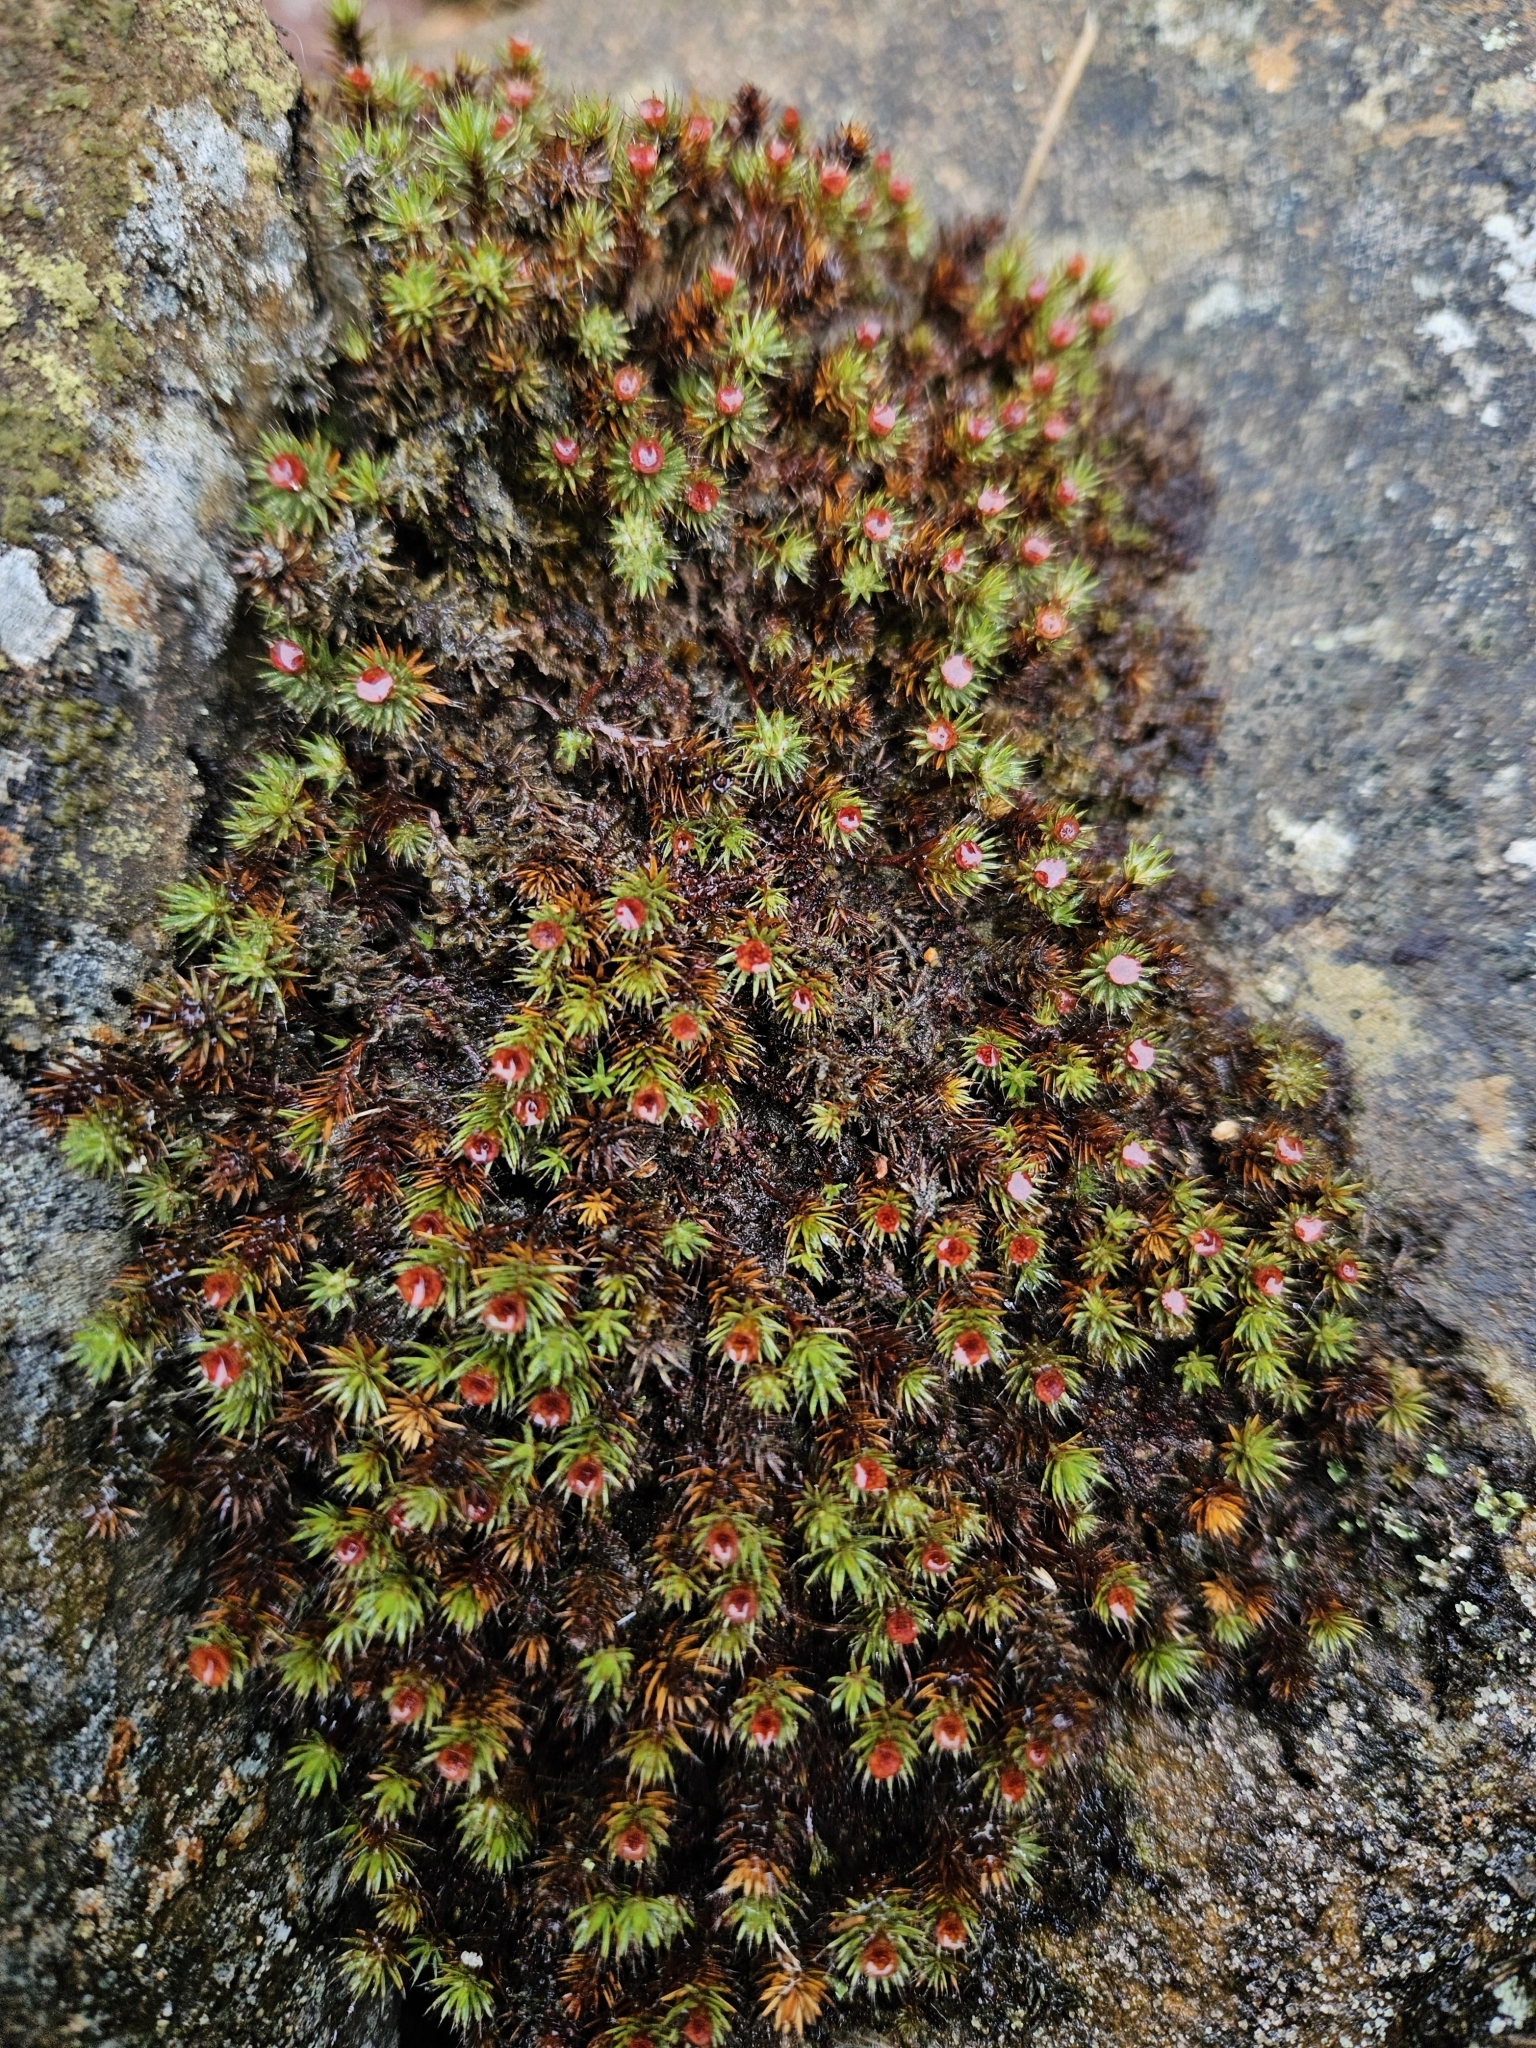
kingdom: Plantae
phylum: Bryophyta
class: Polytrichopsida
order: Polytrichales
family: Polytrichaceae
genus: Polytrichum
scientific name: Polytrichum piliferum
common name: Bristly haircap
